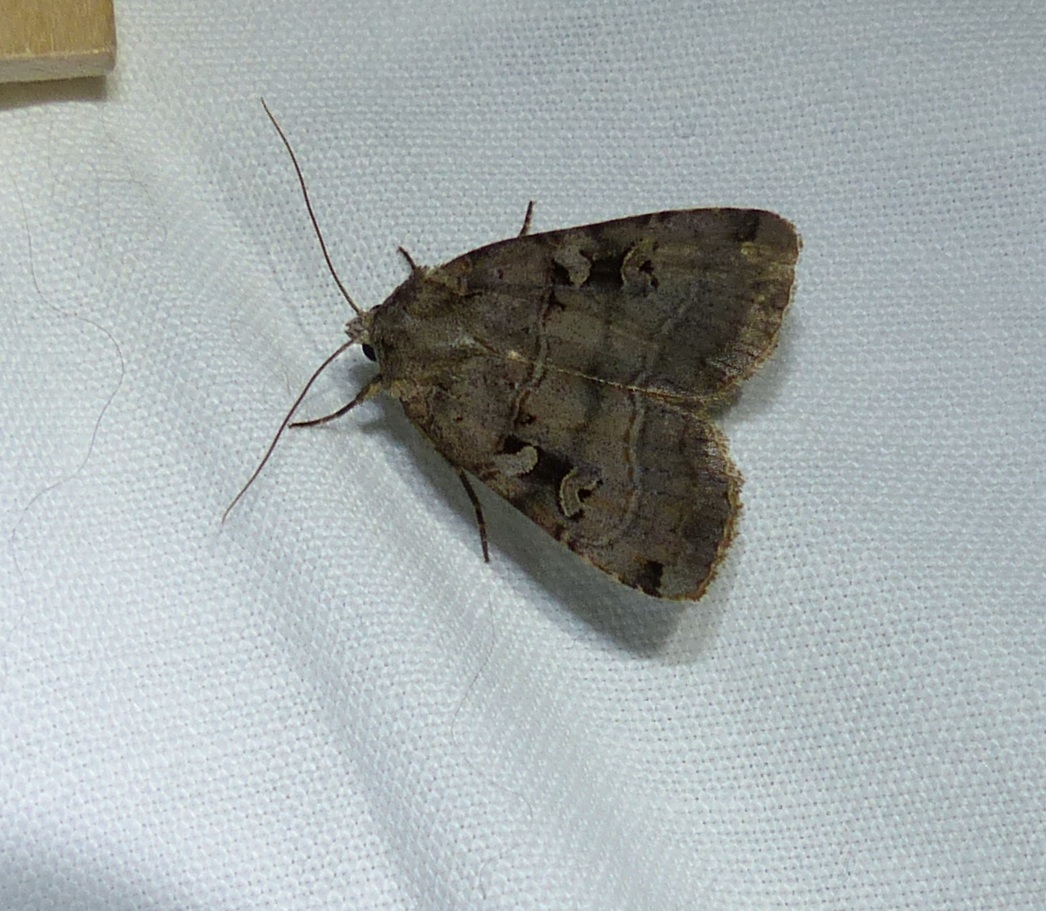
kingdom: Animalia
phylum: Arthropoda
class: Insecta
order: Lepidoptera
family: Noctuidae
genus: Xestia
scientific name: Xestia normaniana
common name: Norman's dart moth
